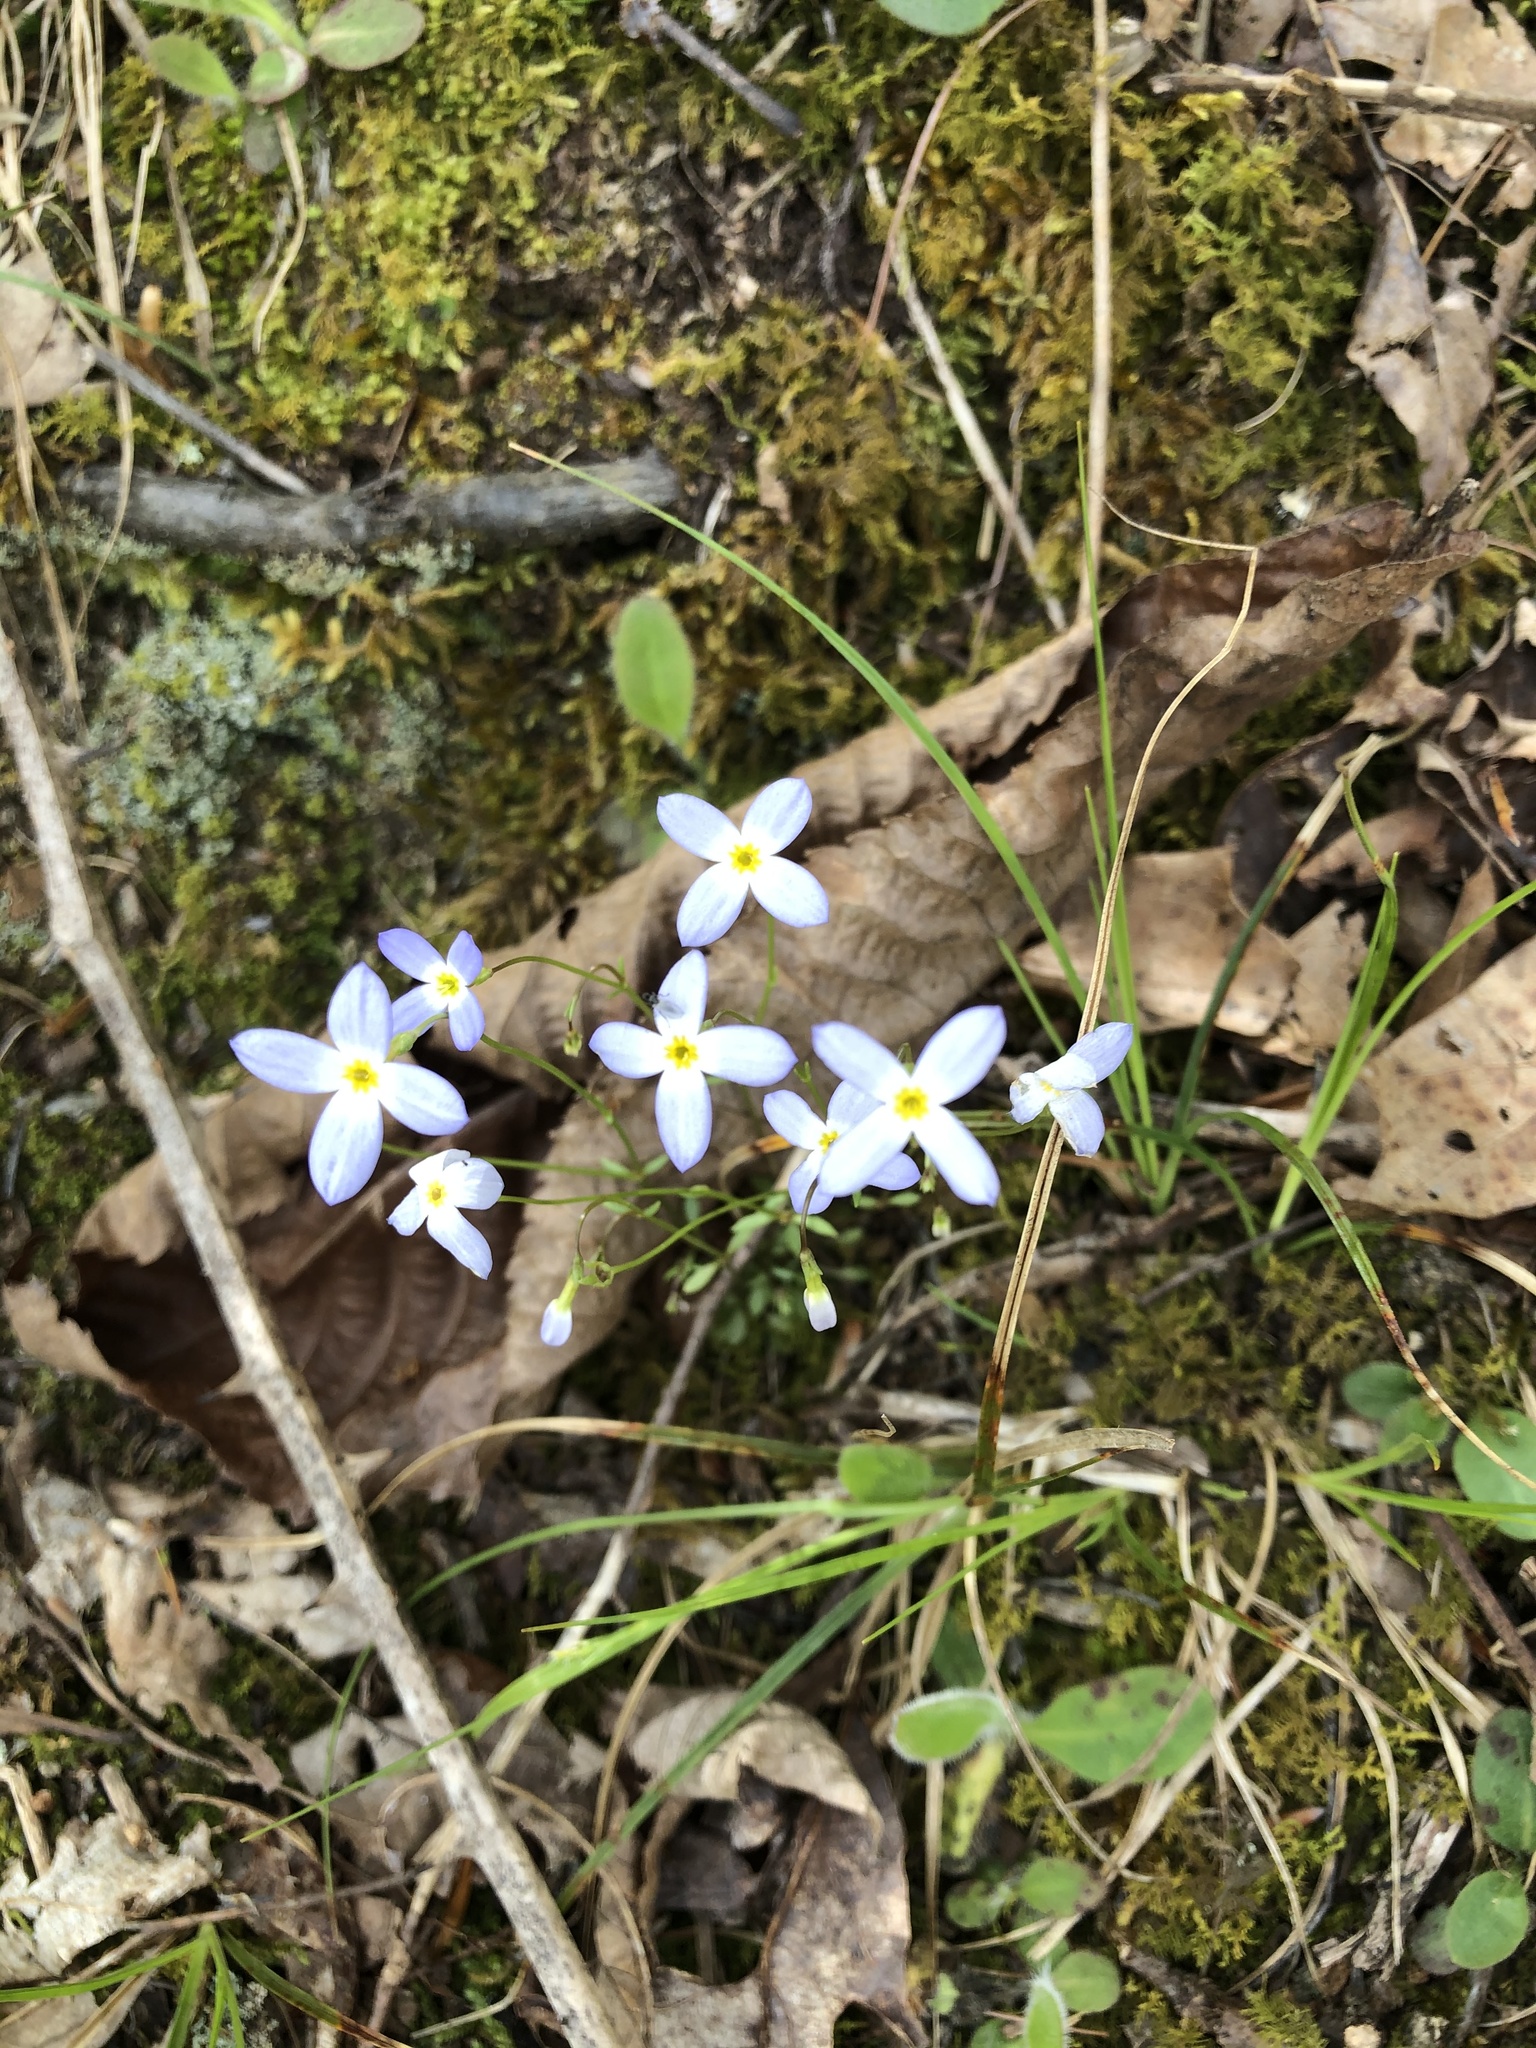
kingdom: Plantae
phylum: Tracheophyta
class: Magnoliopsida
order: Gentianales
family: Rubiaceae
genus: Houstonia
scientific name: Houstonia caerulea
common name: Bluets
